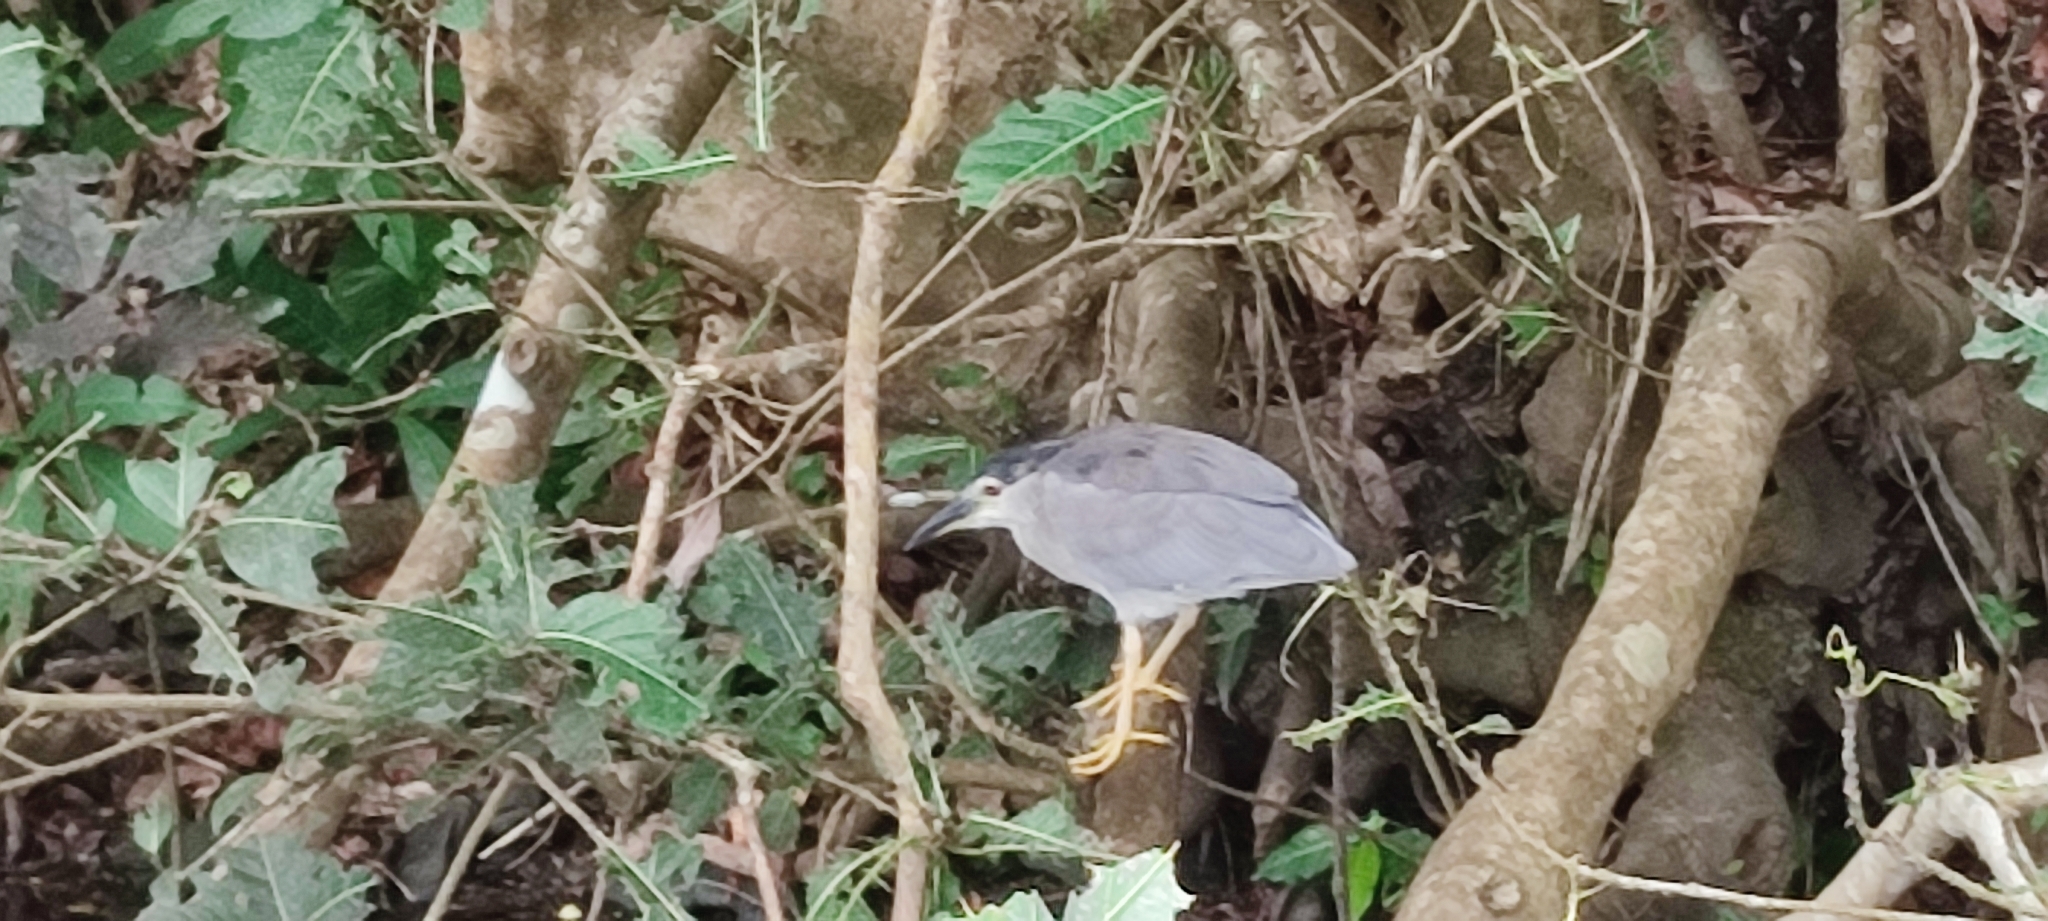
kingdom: Animalia
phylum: Chordata
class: Aves
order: Pelecaniformes
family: Ardeidae
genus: Nycticorax
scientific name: Nycticorax nycticorax
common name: Black-crowned night heron
